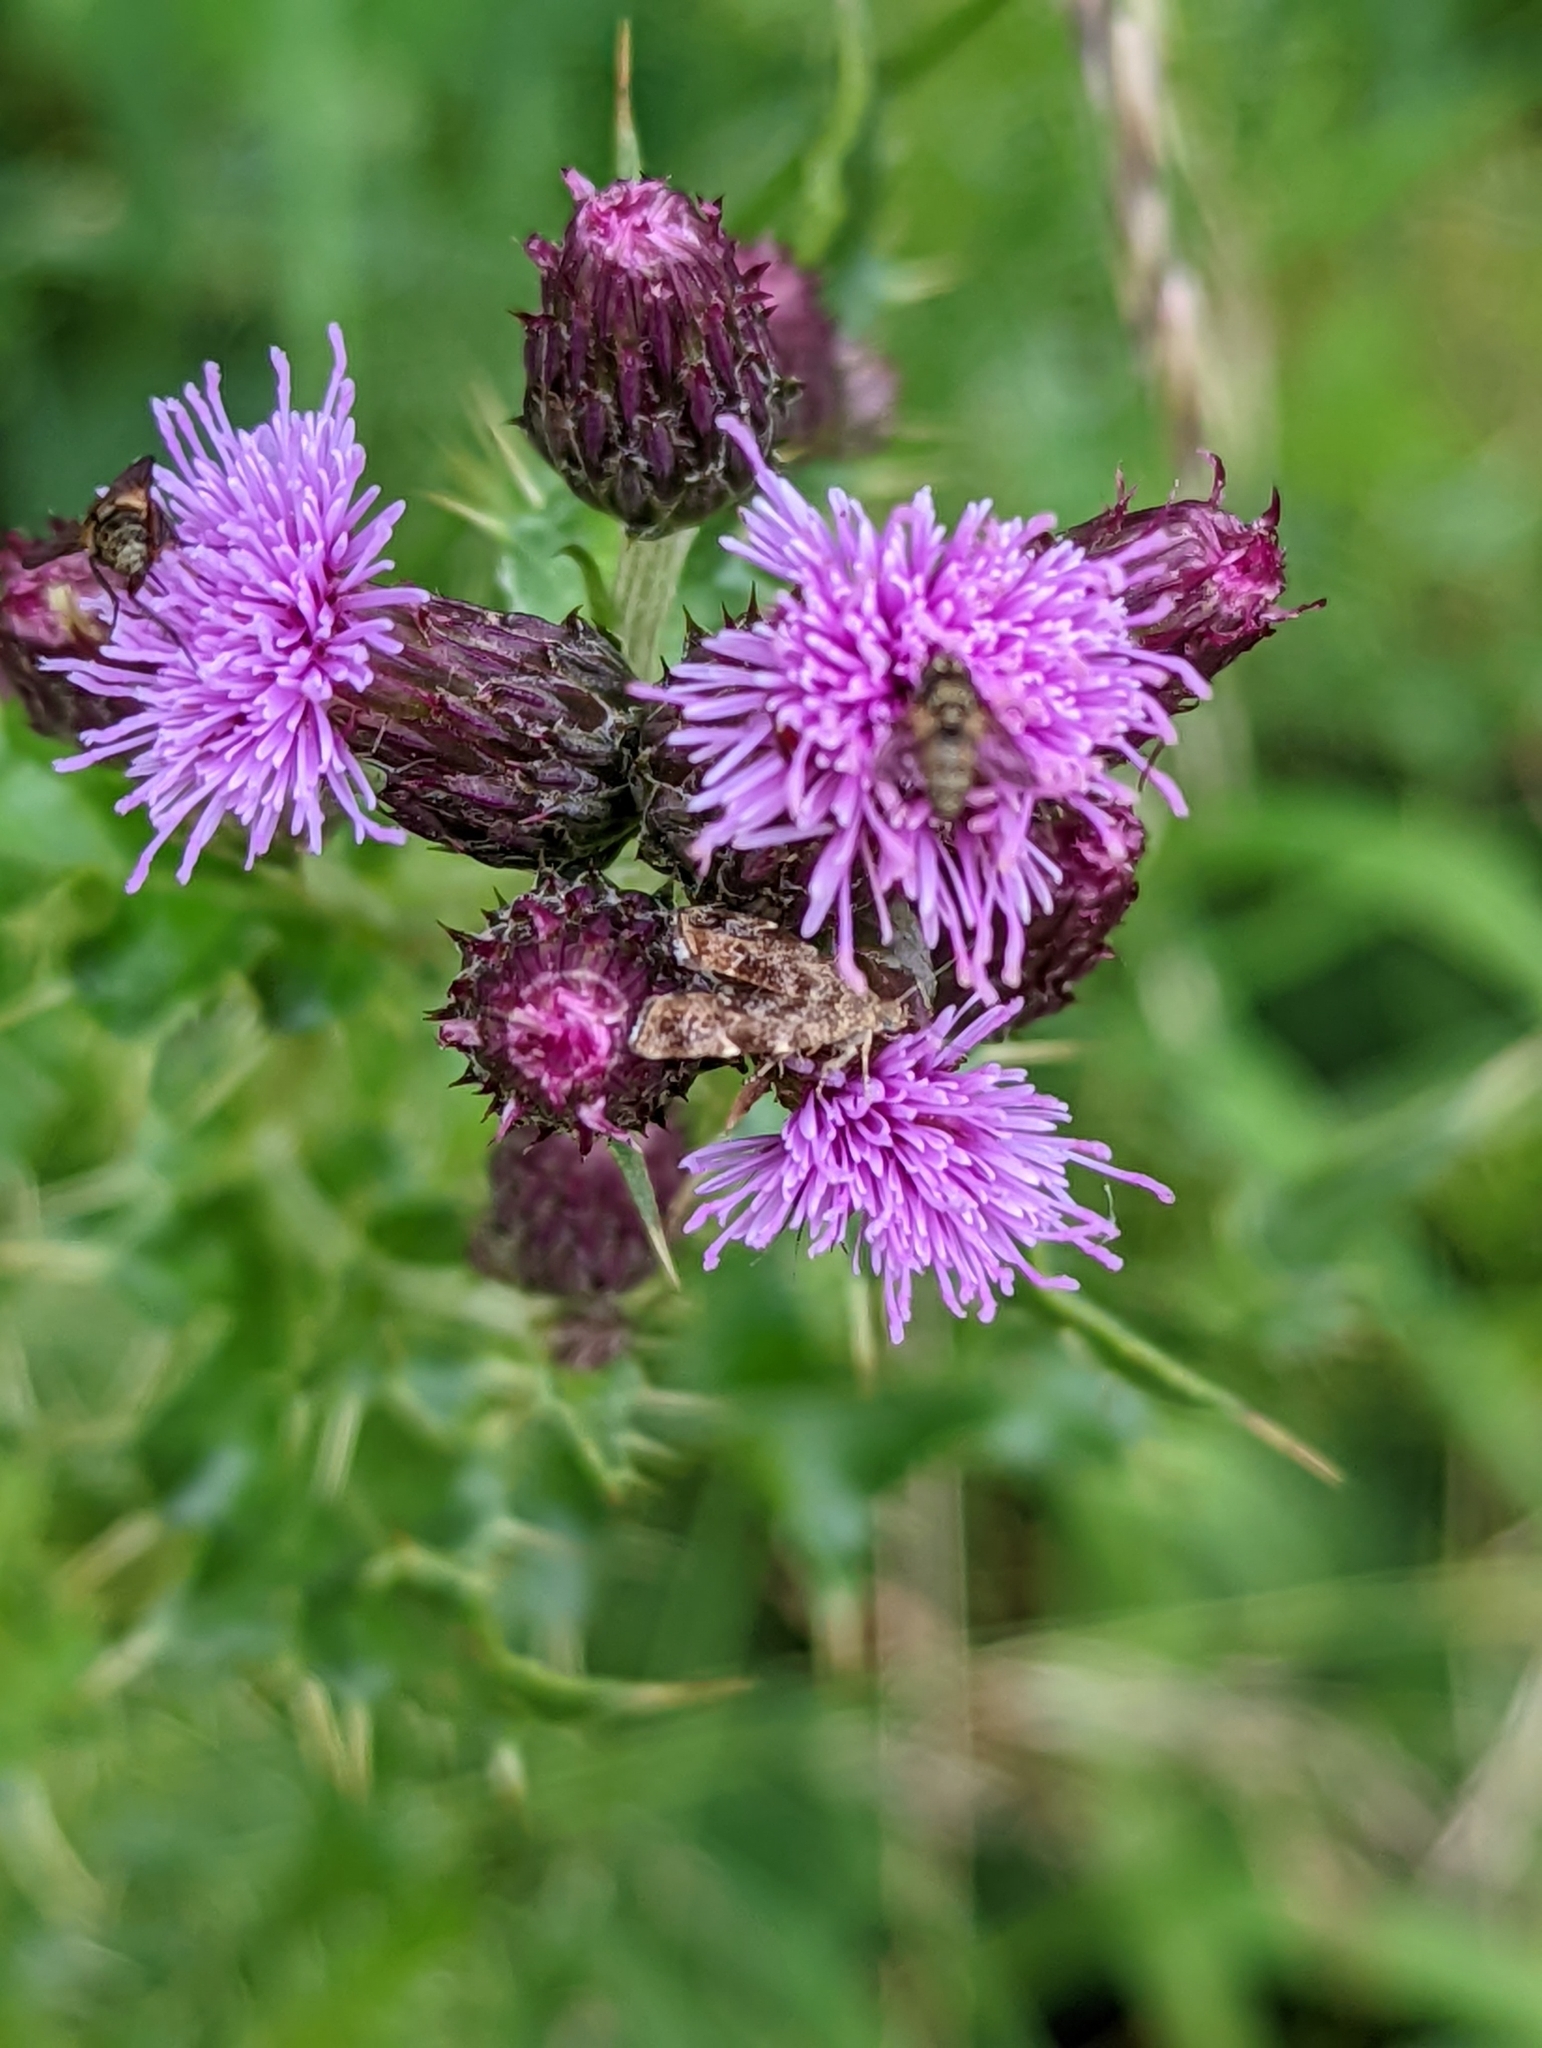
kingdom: Animalia
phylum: Arthropoda
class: Insecta
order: Lepidoptera
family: Choreutidae
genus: Anthophila
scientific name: Anthophila fabriciana
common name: Nettle-tap
